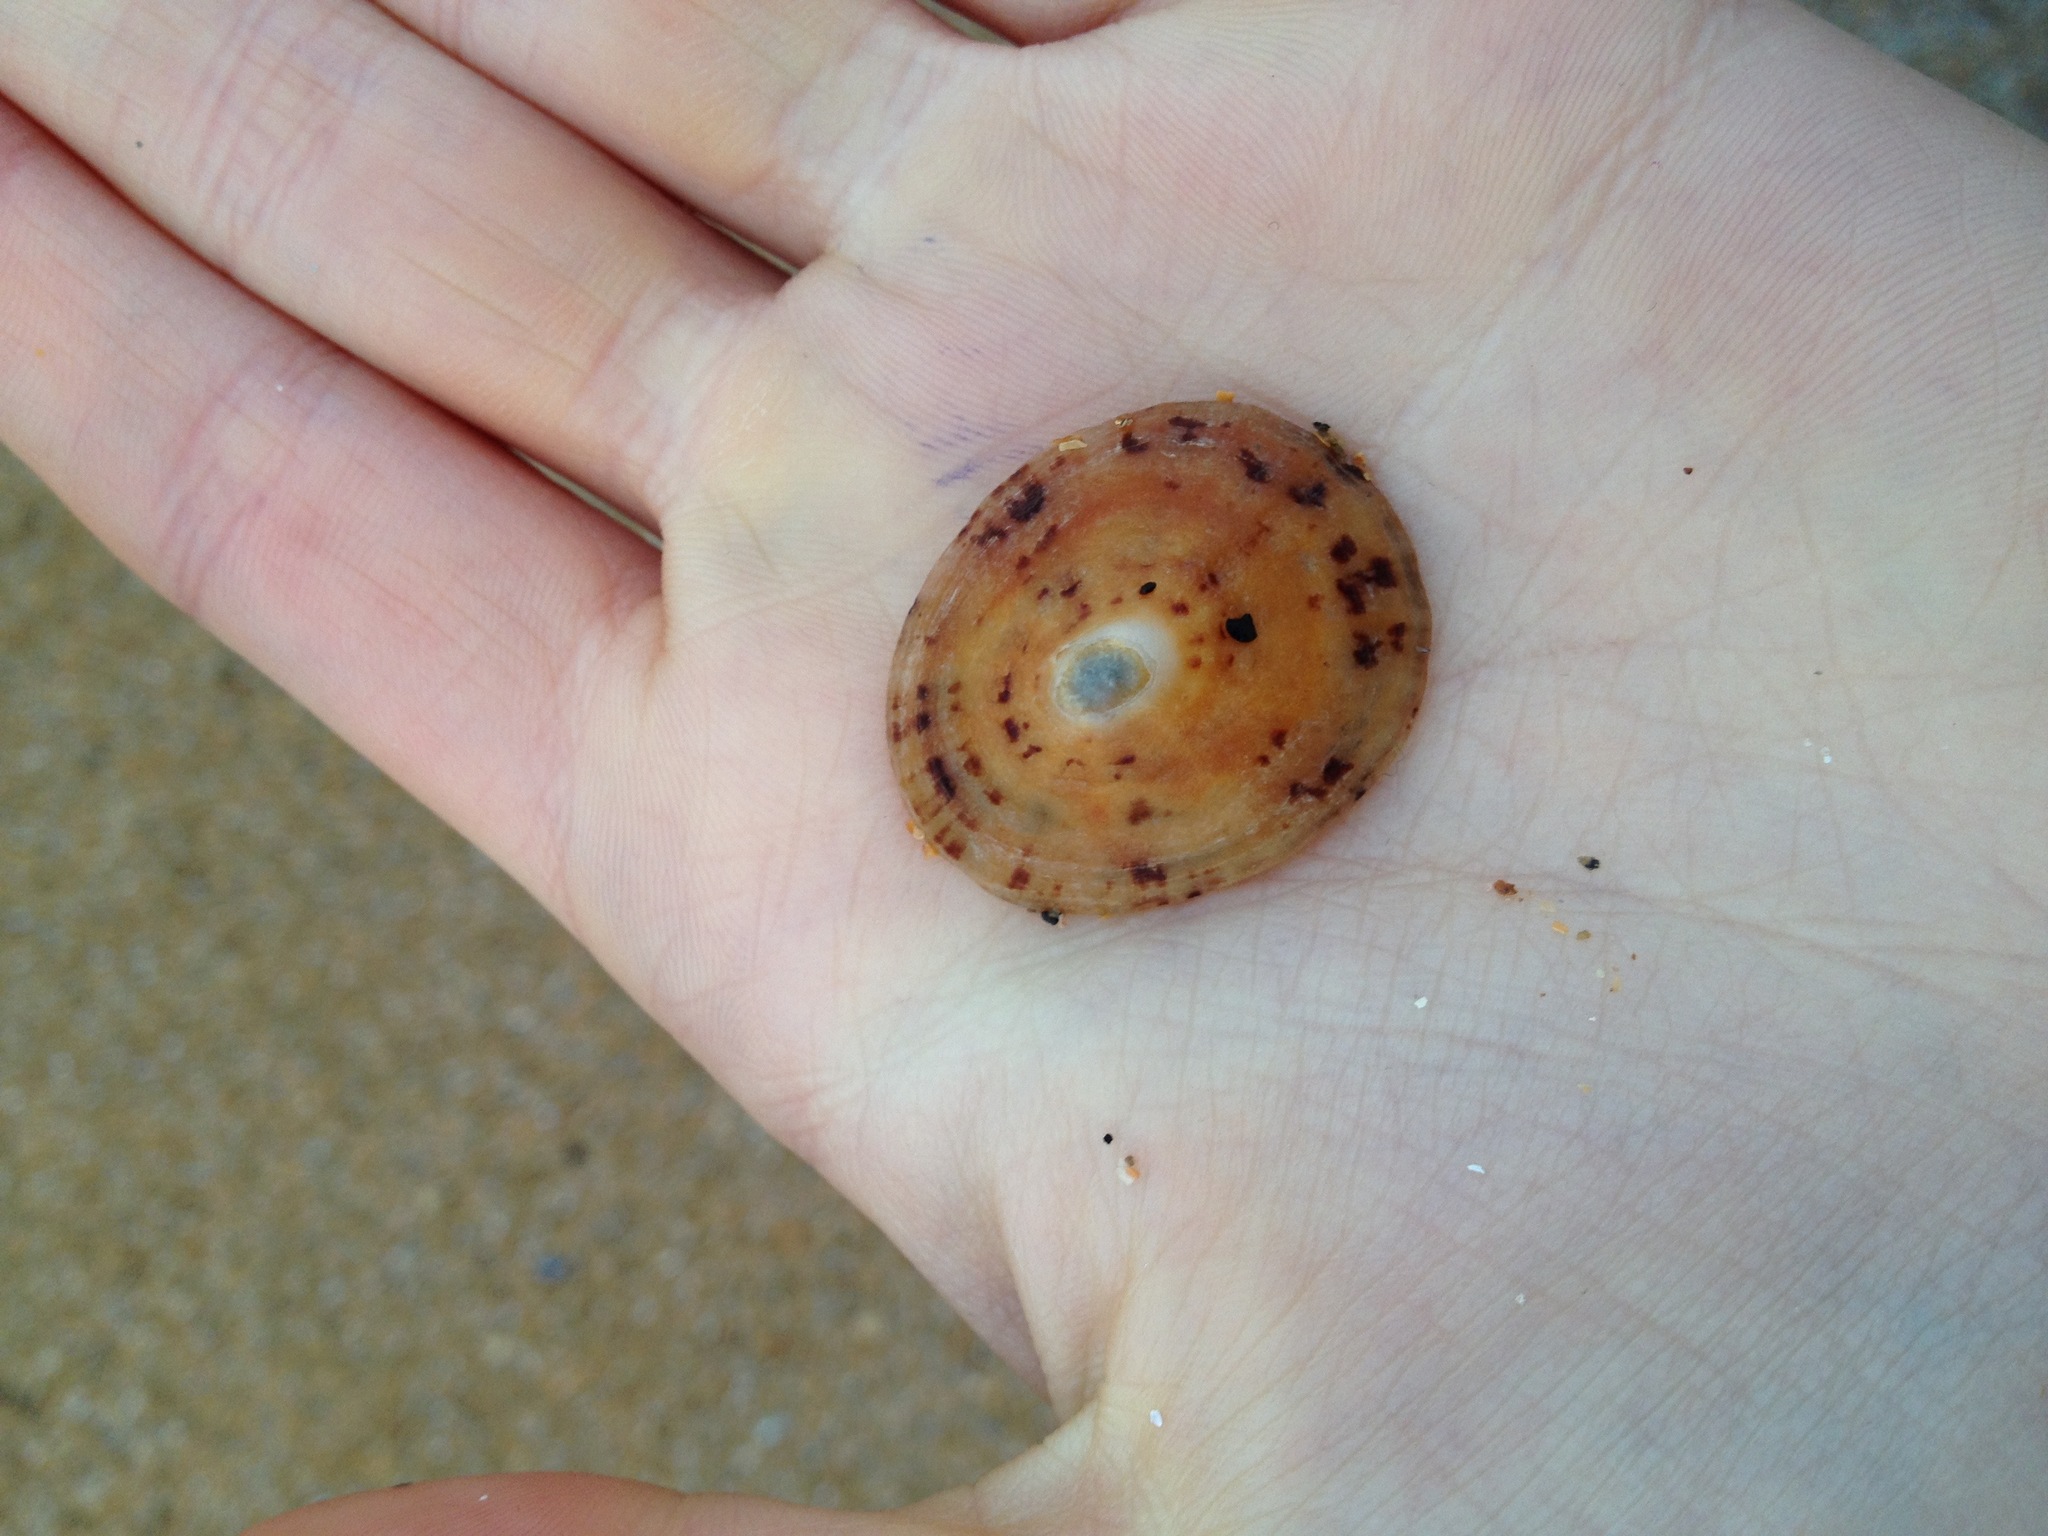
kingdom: Animalia
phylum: Mollusca
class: Gastropoda
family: Patellidae
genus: Patella
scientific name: Patella
